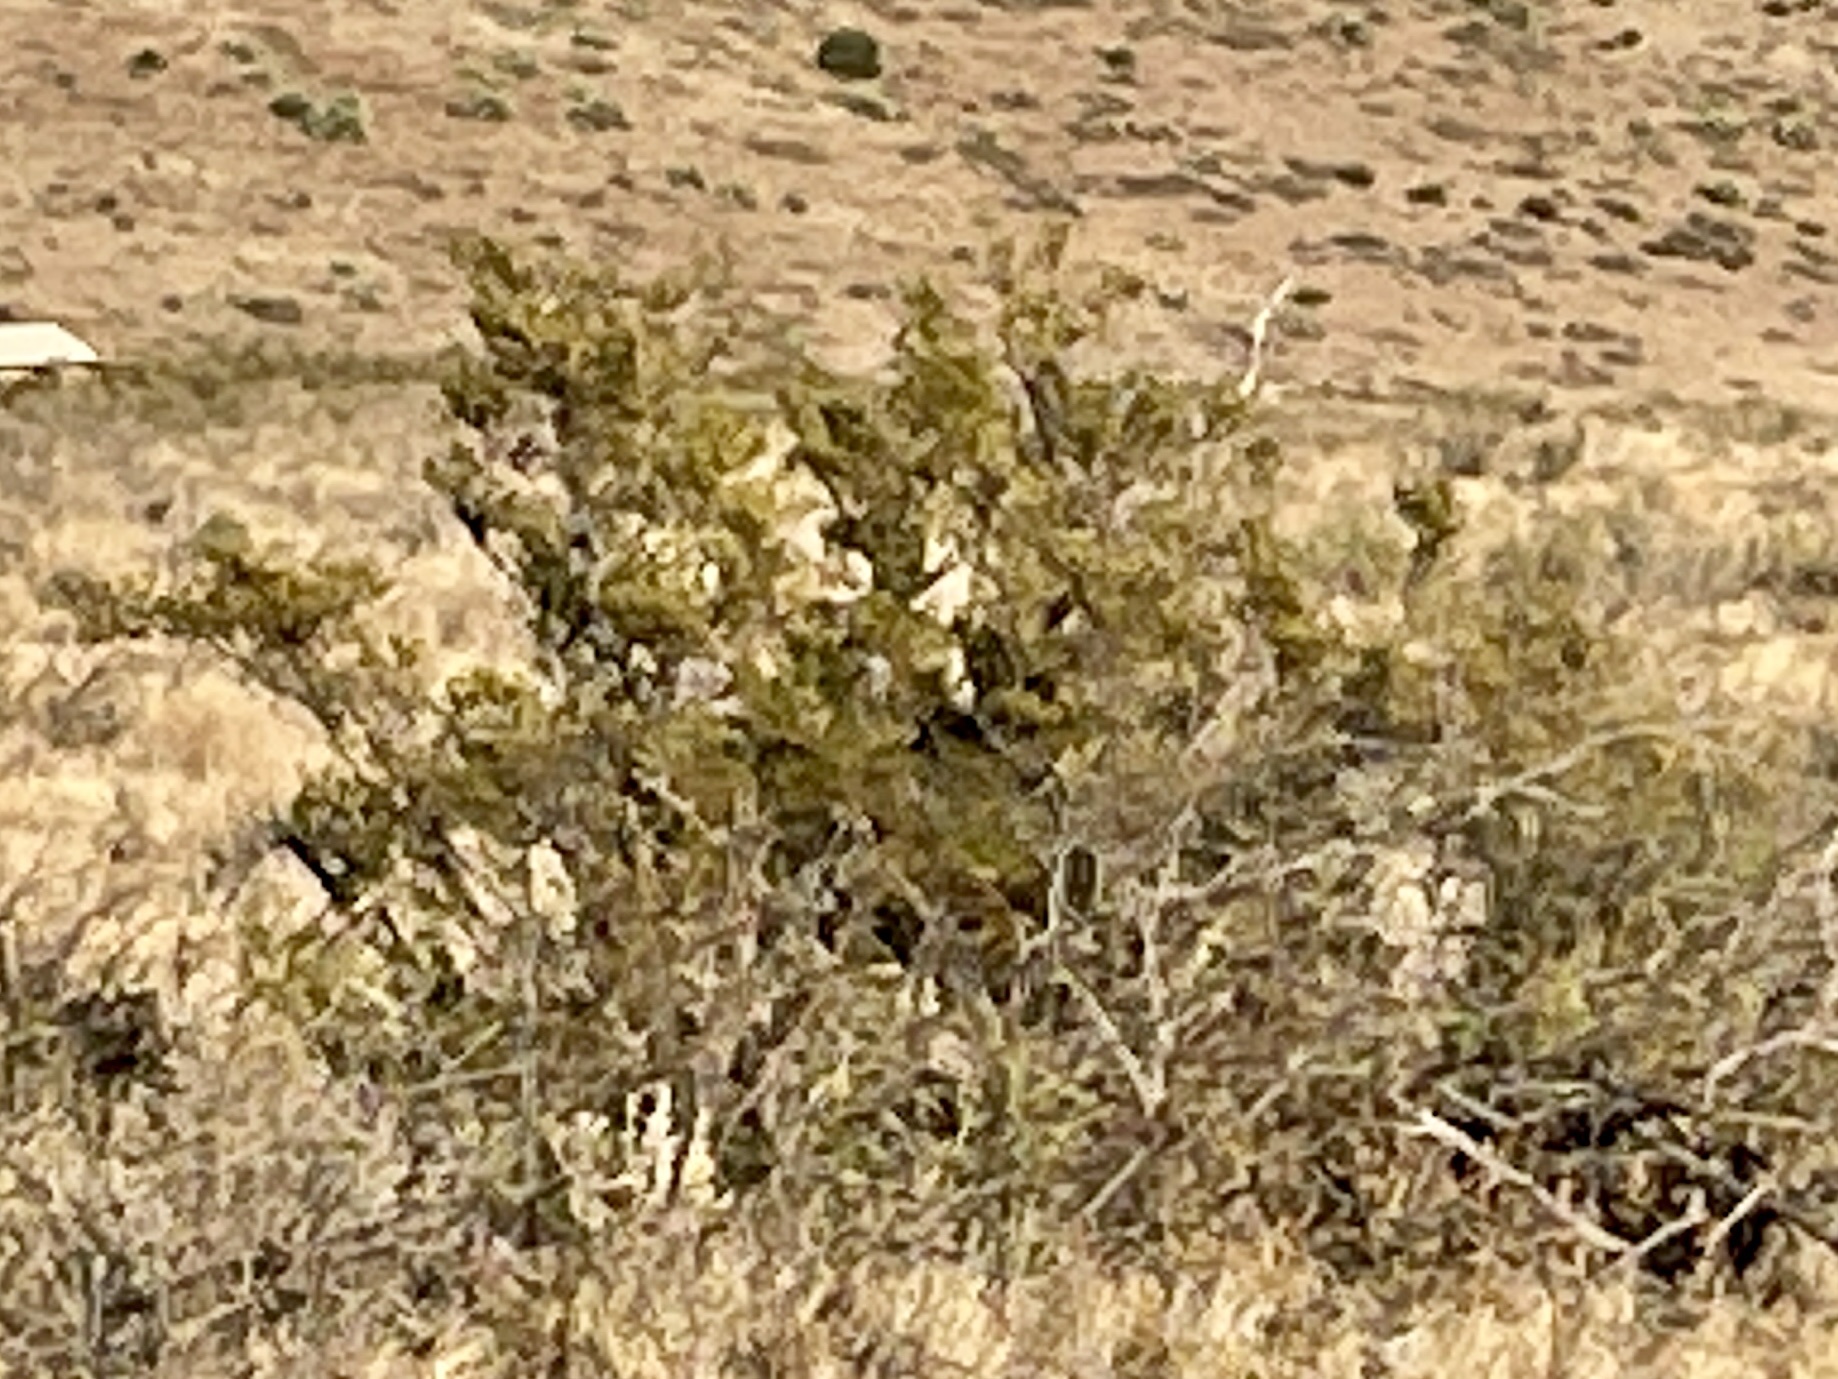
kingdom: Plantae
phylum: Tracheophyta
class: Magnoliopsida
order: Zygophyllales
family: Zygophyllaceae
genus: Larrea
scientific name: Larrea tridentata
